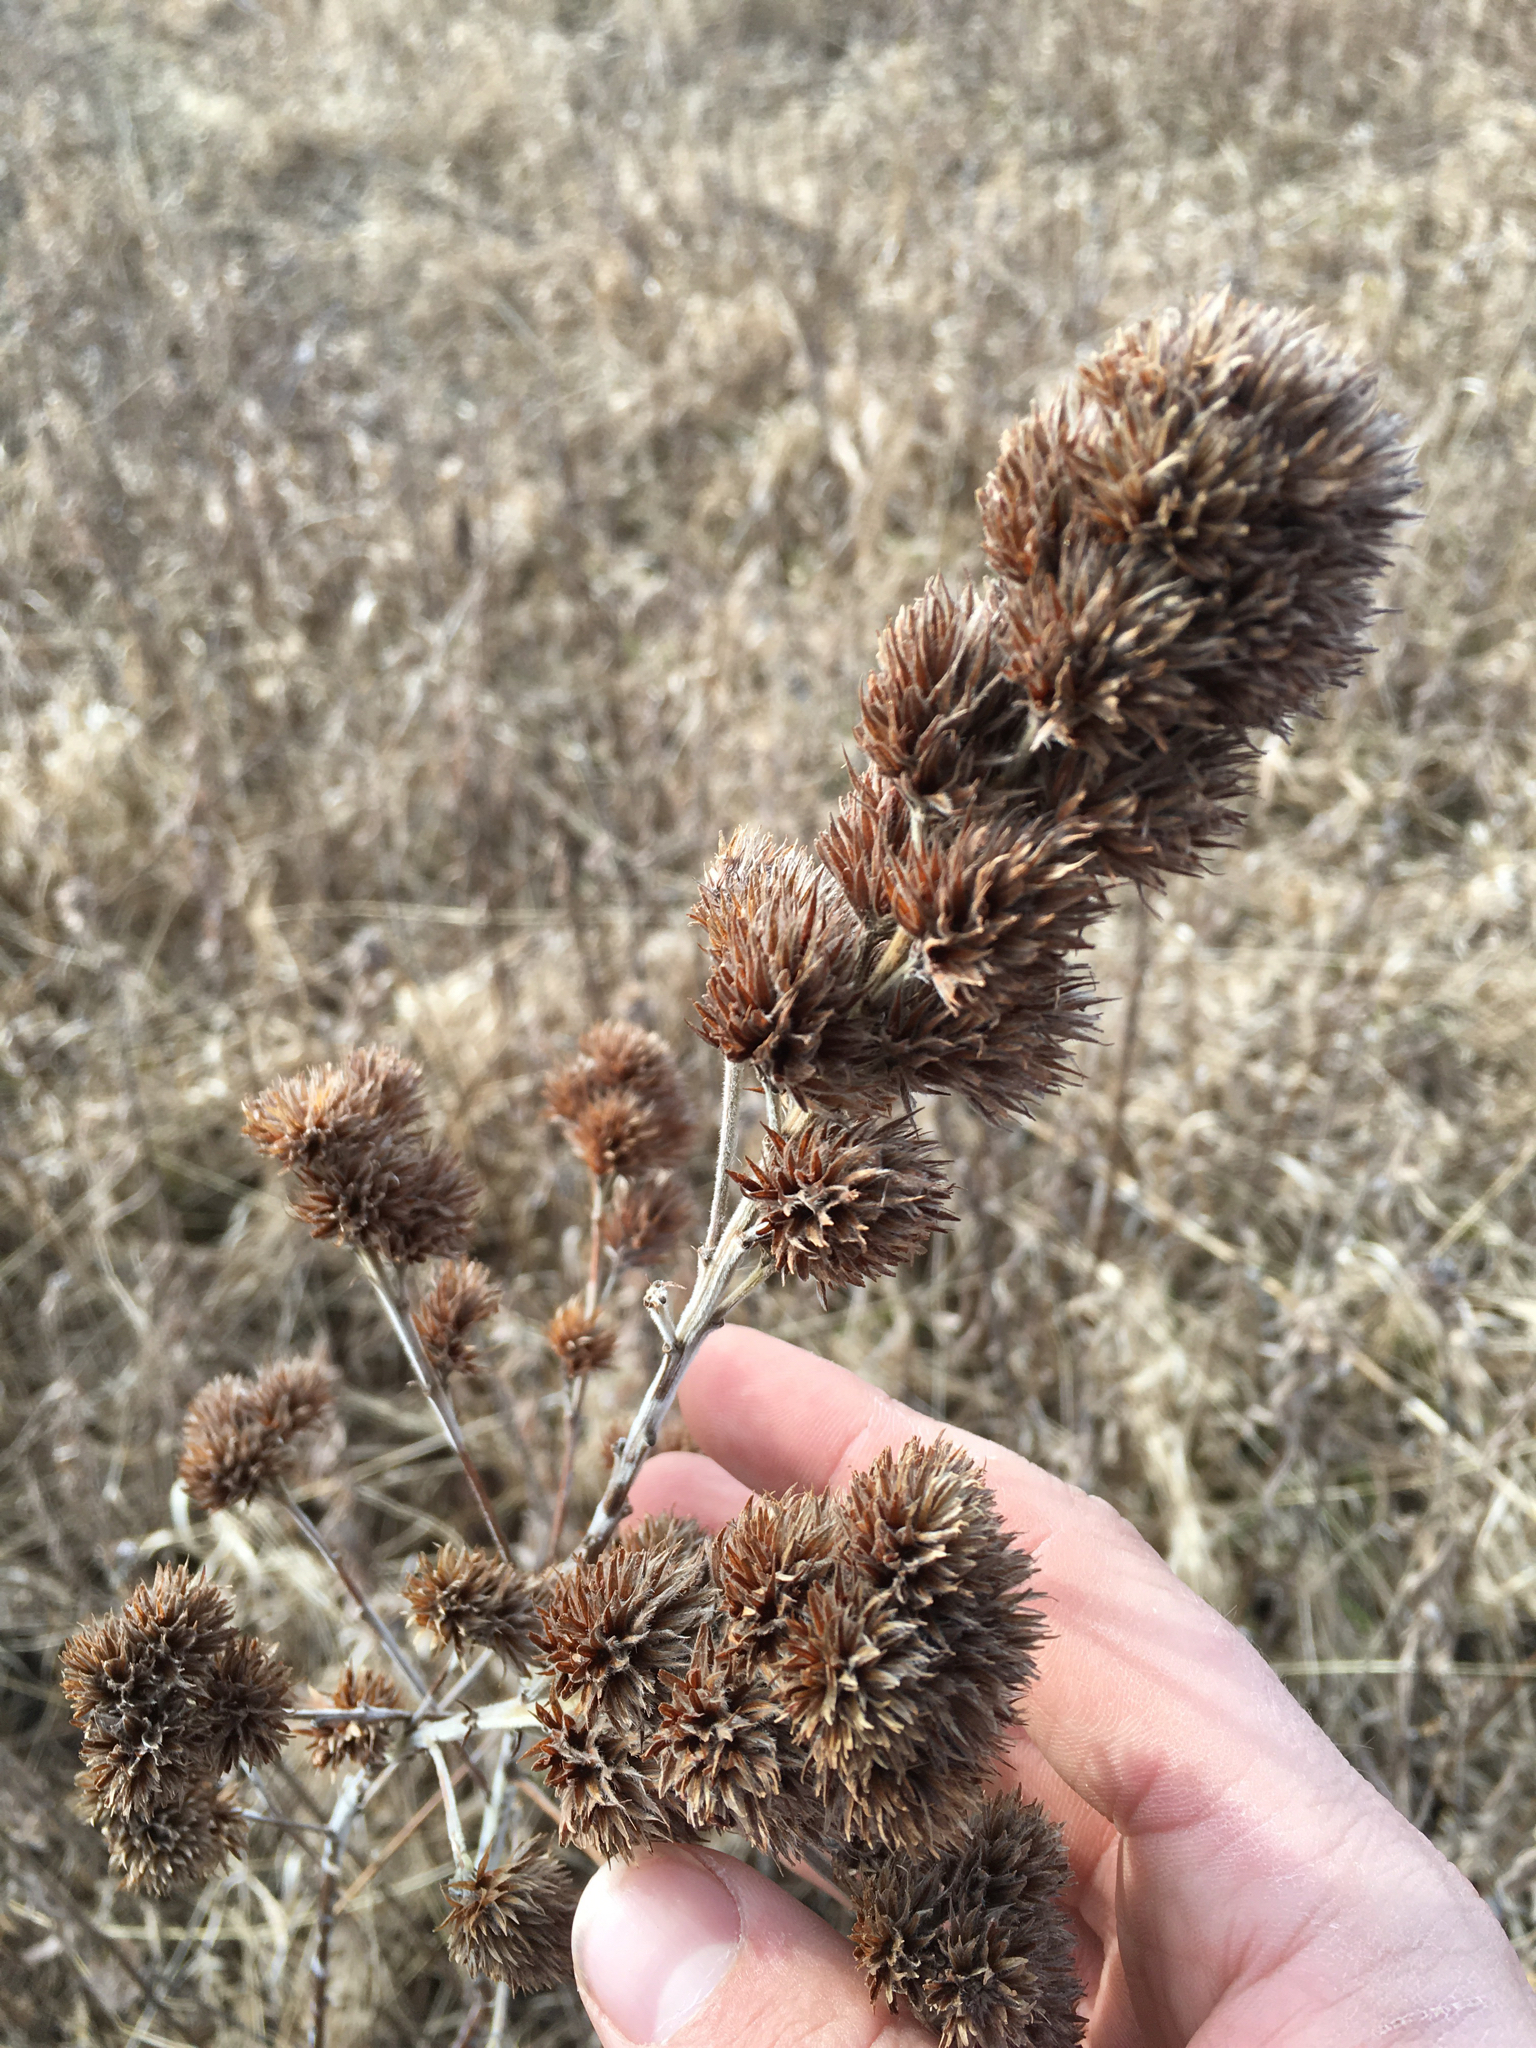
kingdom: Plantae
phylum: Tracheophyta
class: Magnoliopsida
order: Fabales
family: Fabaceae
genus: Lespedeza
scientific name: Lespedeza capitata
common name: Dusty clover
